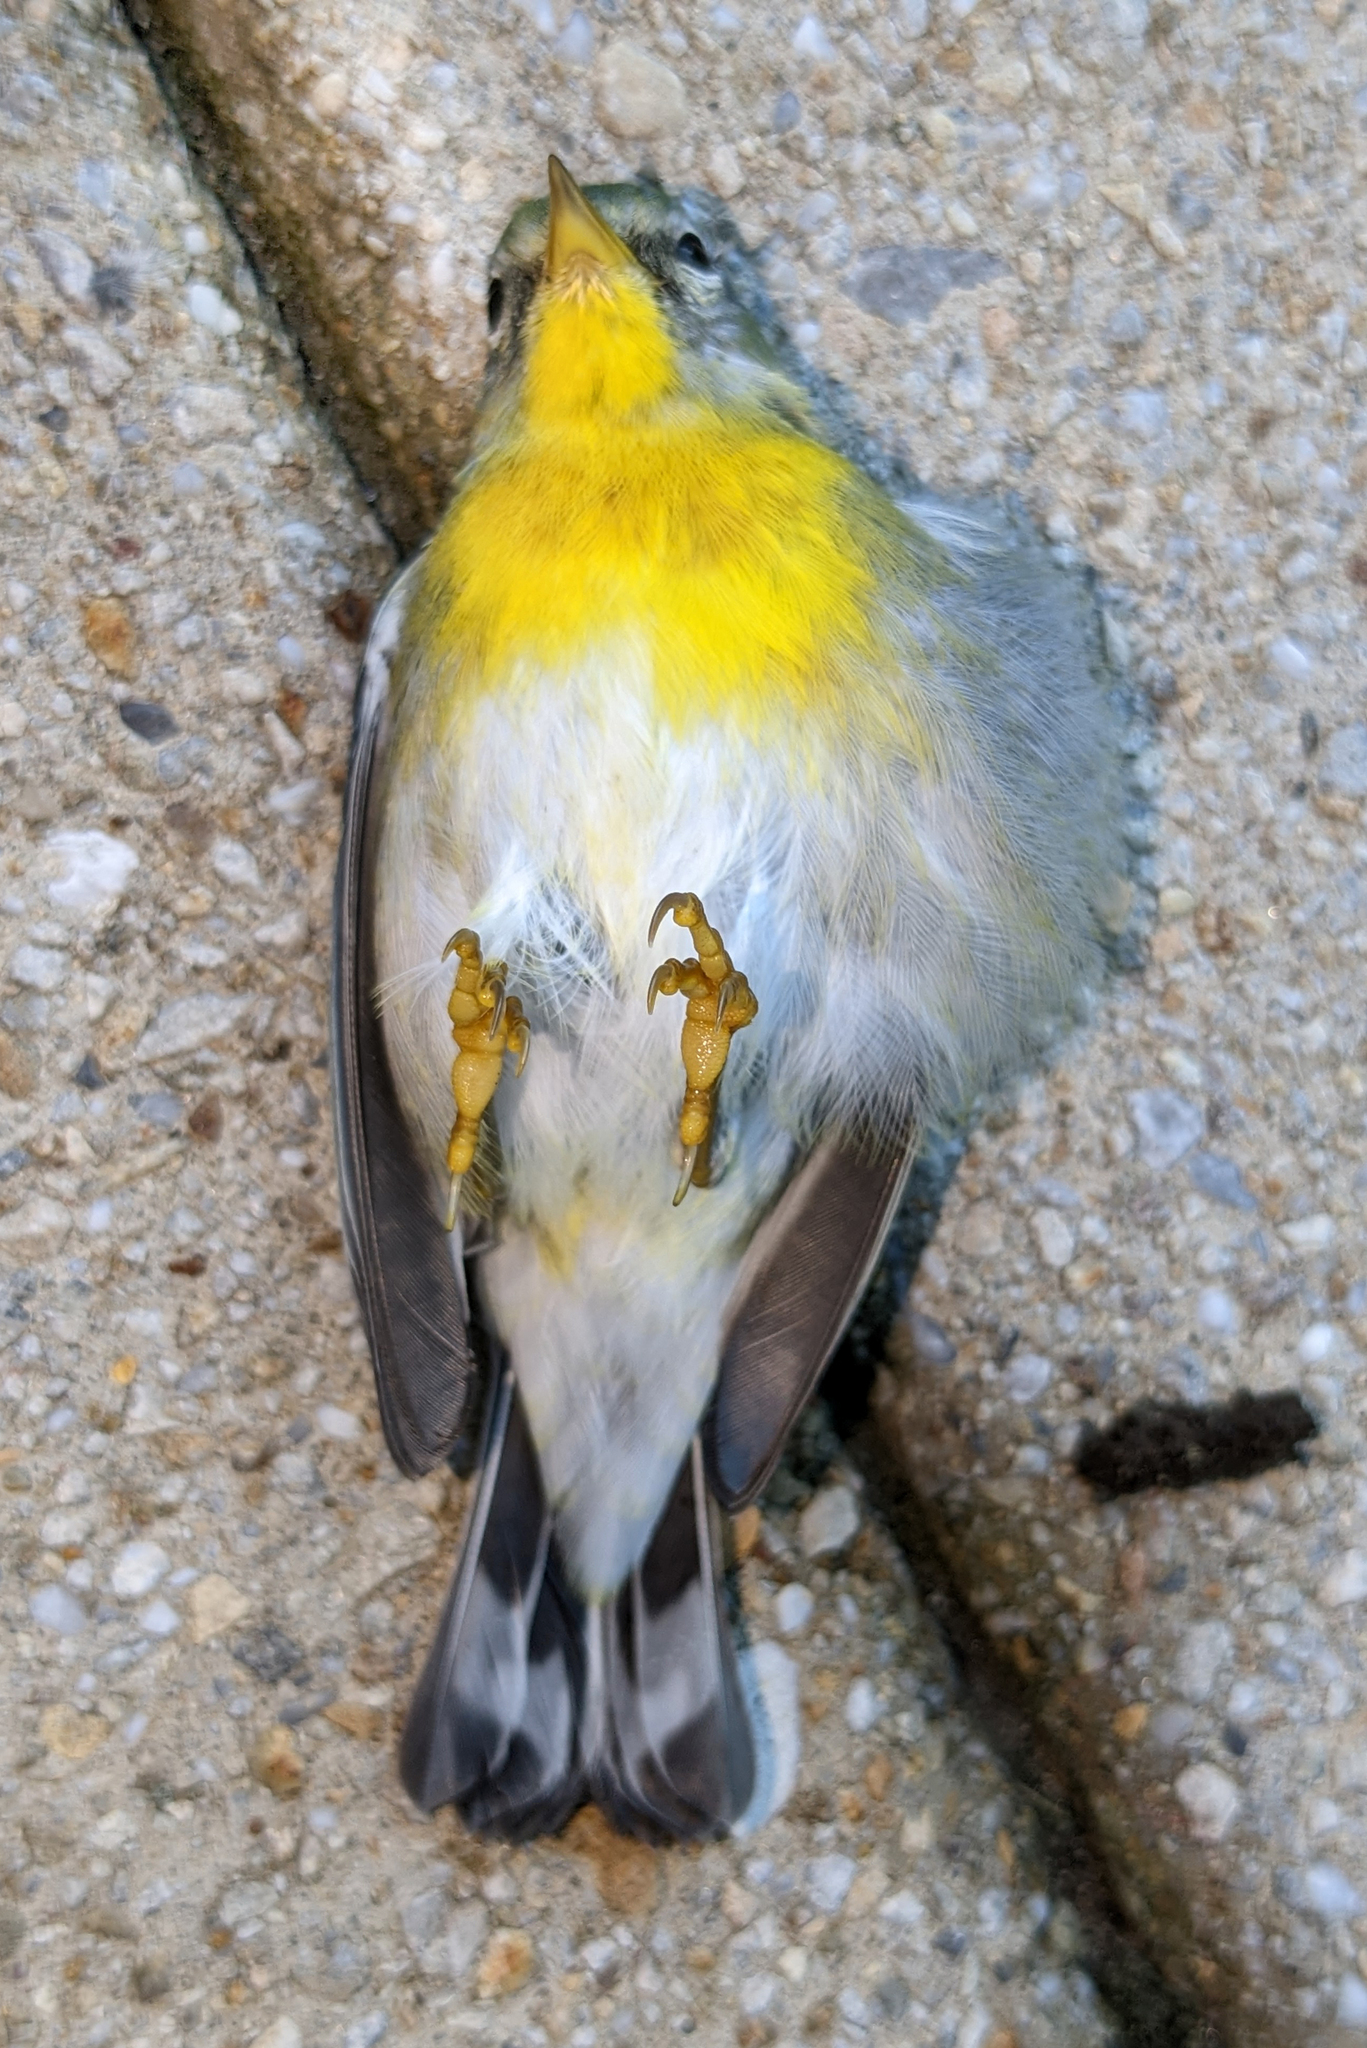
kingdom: Animalia
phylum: Chordata
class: Aves
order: Passeriformes
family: Parulidae
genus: Setophaga
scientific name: Setophaga americana
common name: Northern parula
